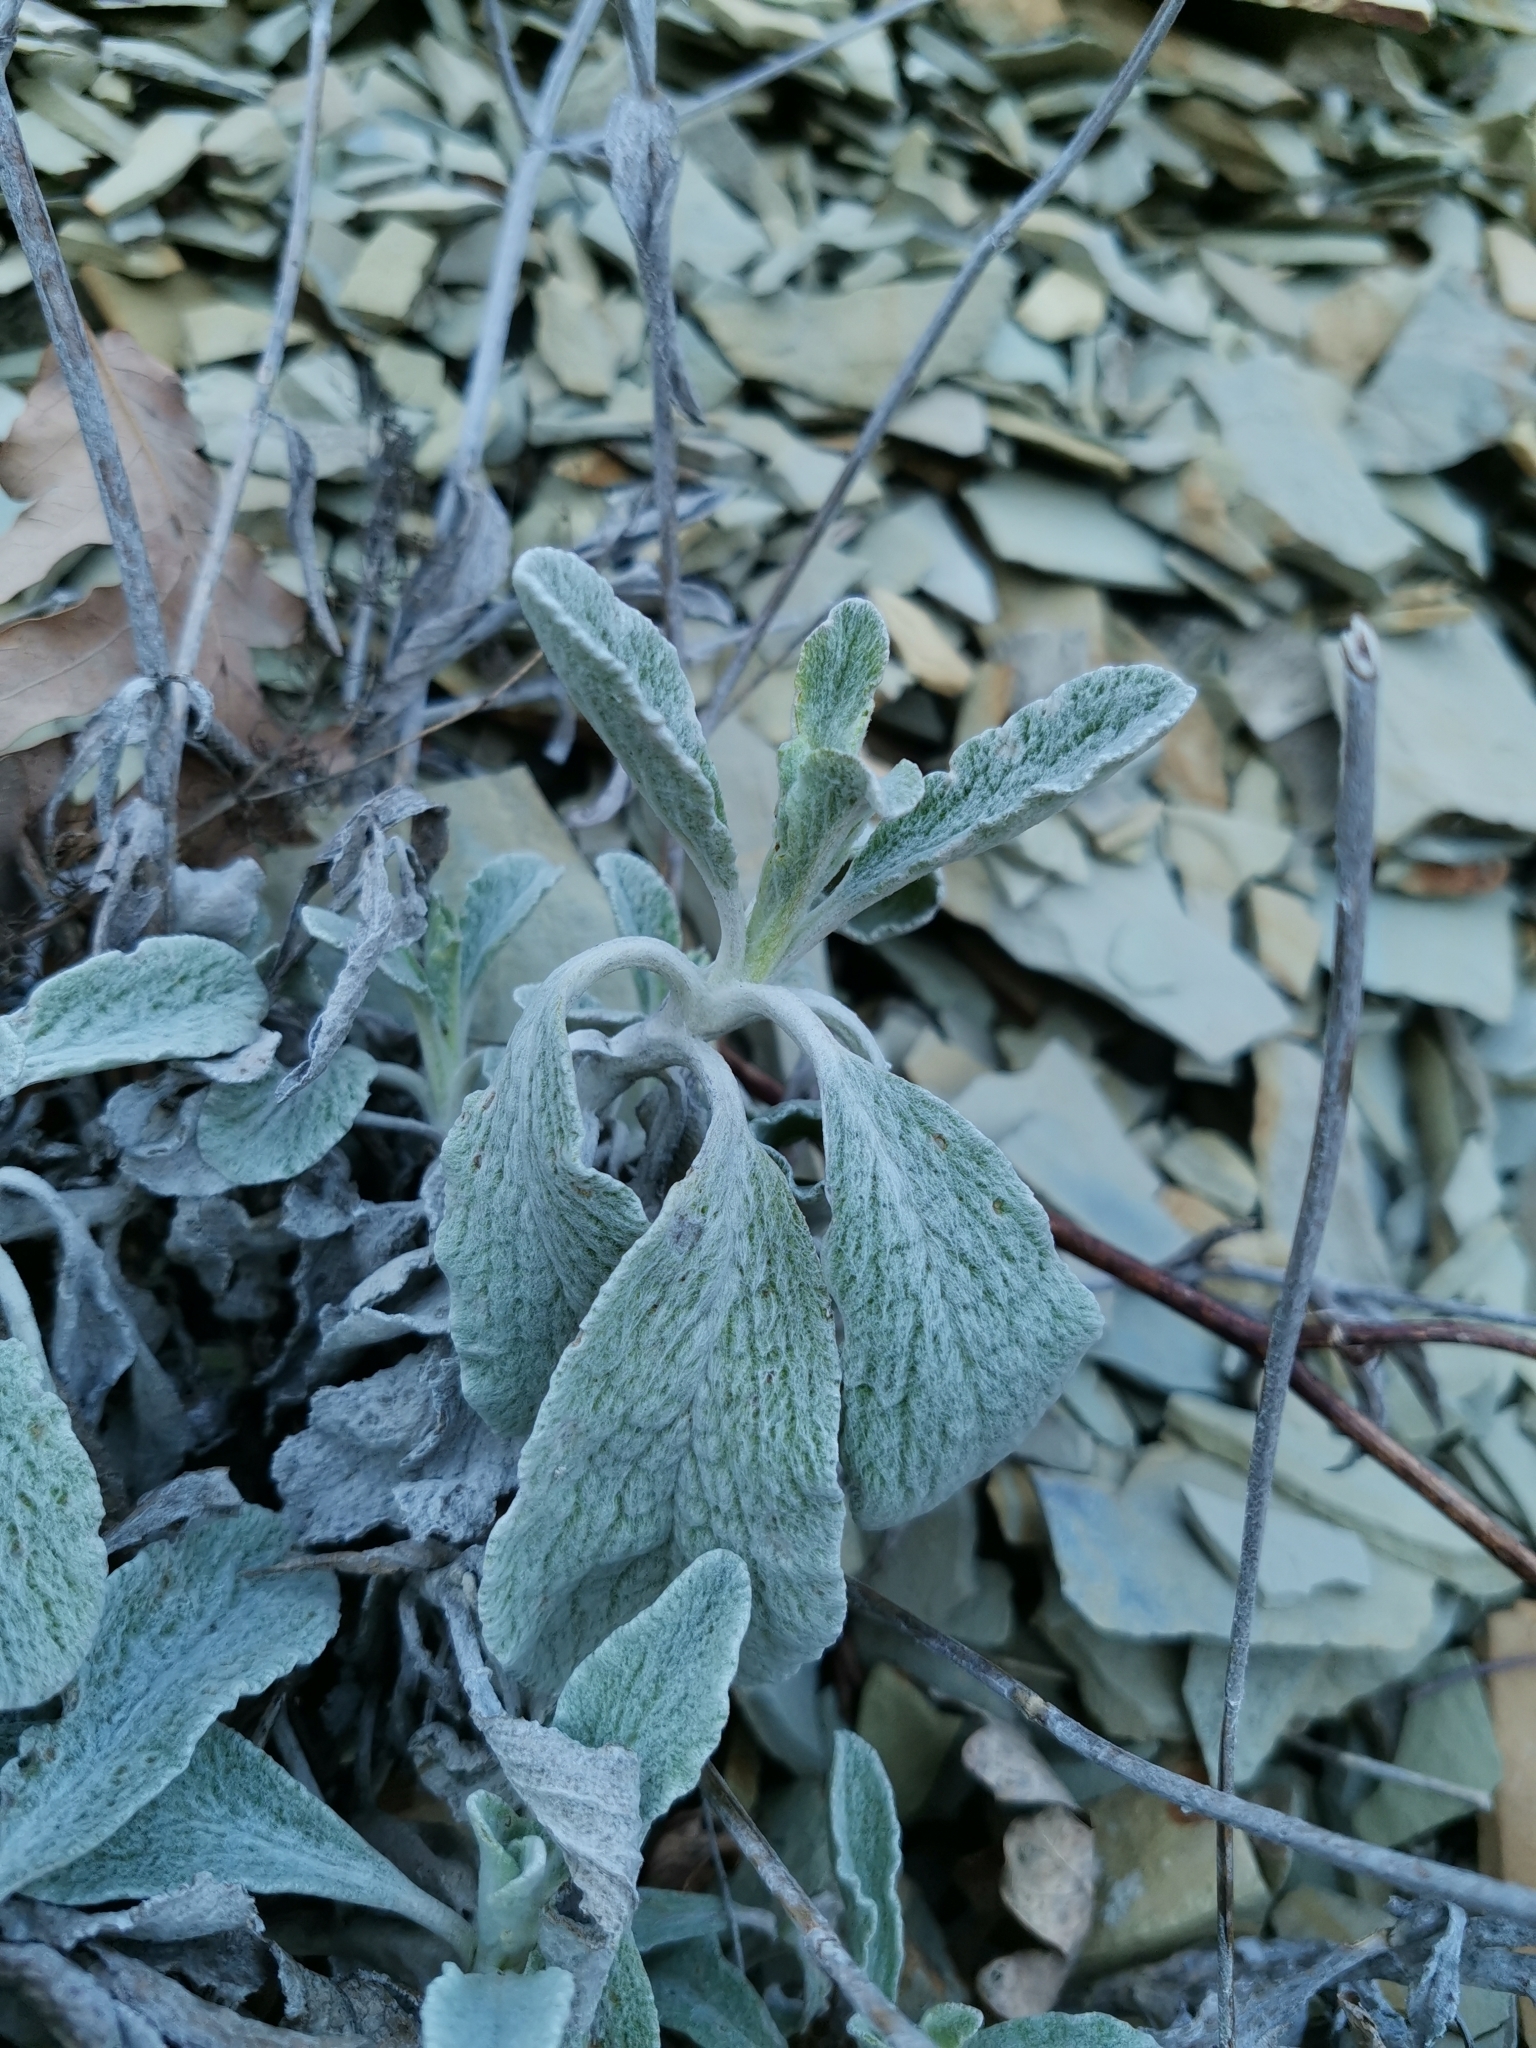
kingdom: Plantae
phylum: Tracheophyta
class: Magnoliopsida
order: Lamiales
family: Lamiaceae
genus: Sideritis
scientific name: Sideritis euxina
